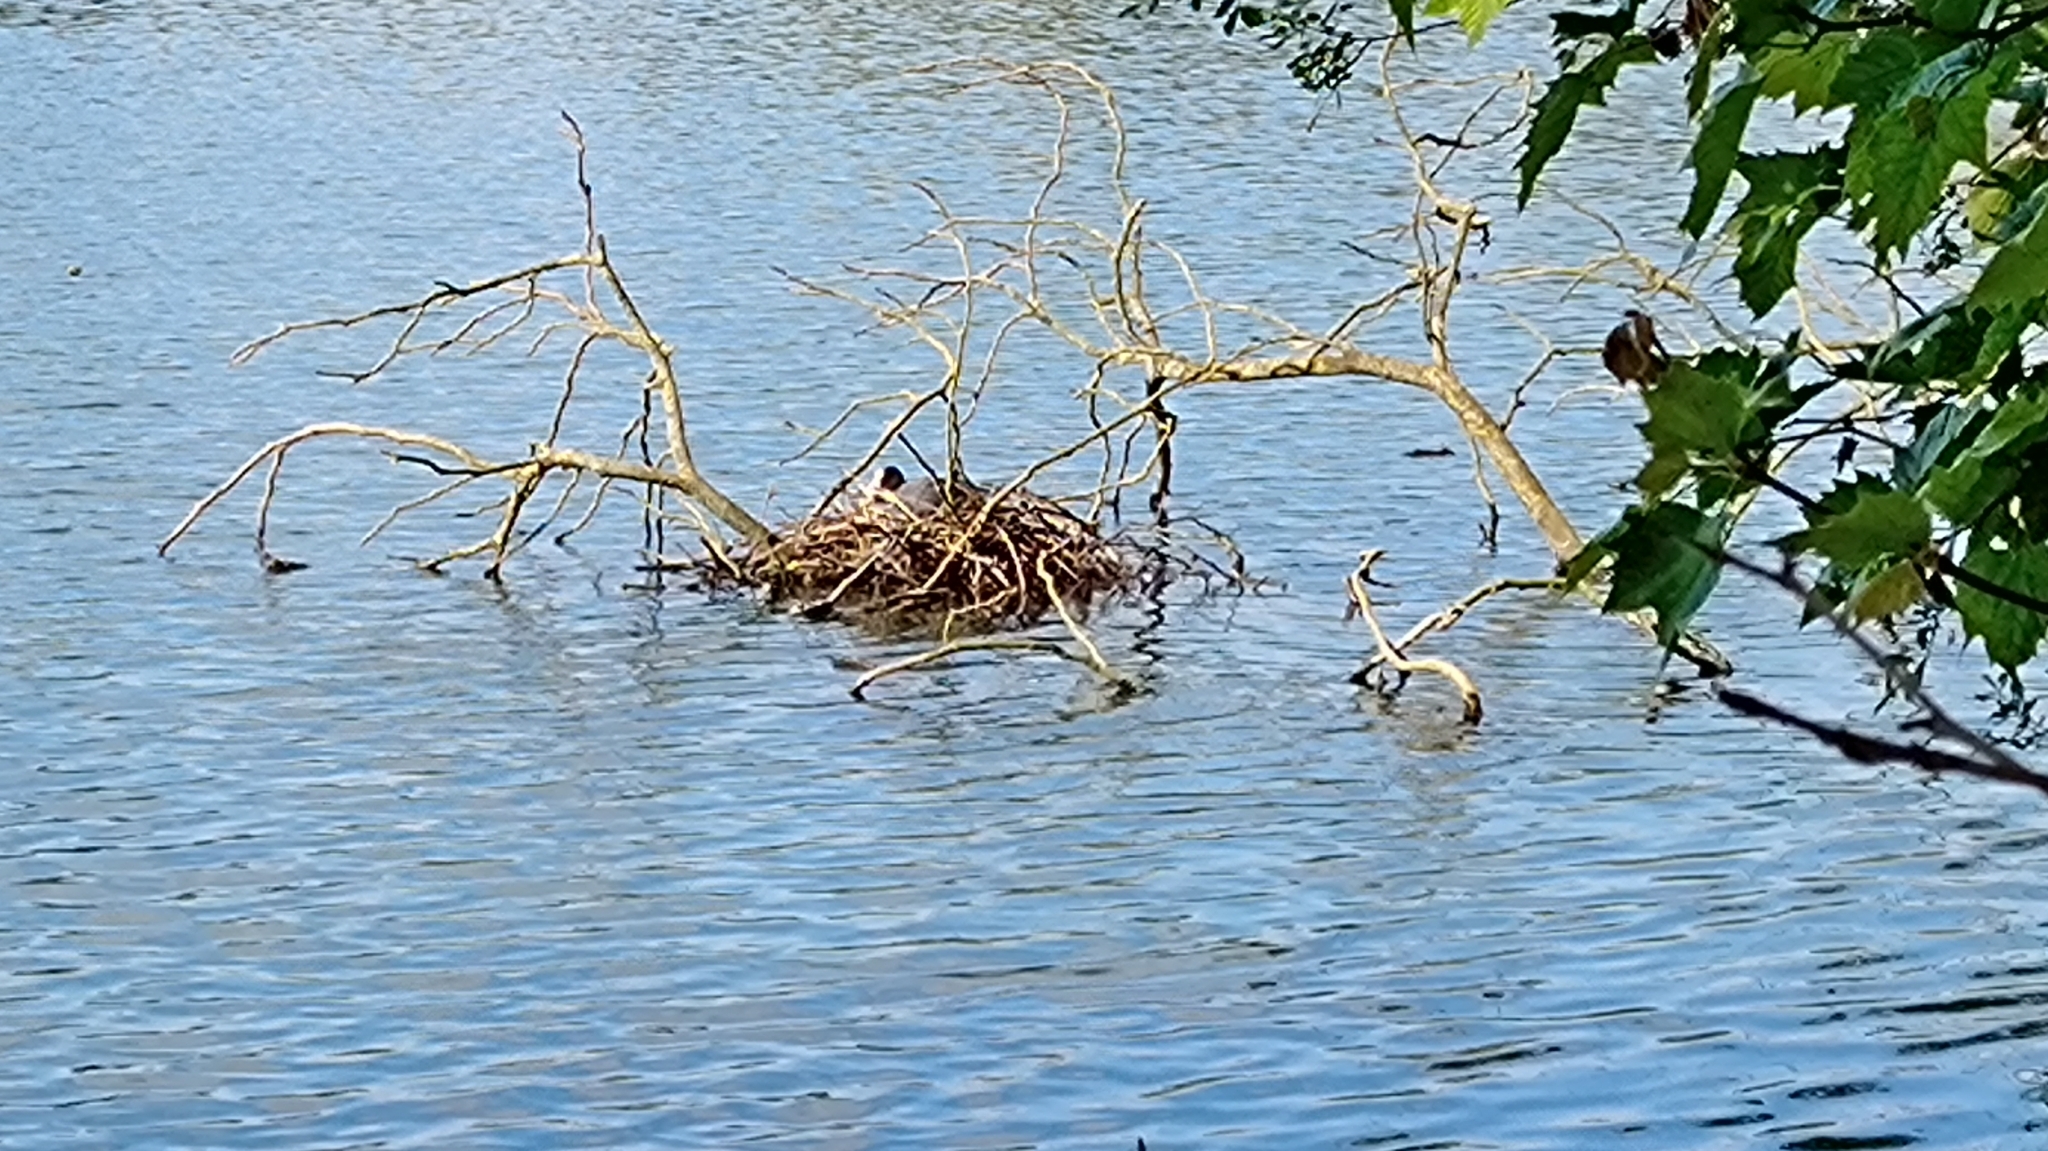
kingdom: Animalia
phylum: Chordata
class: Aves
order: Gruiformes
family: Rallidae
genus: Fulica
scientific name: Fulica atra
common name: Eurasian coot
